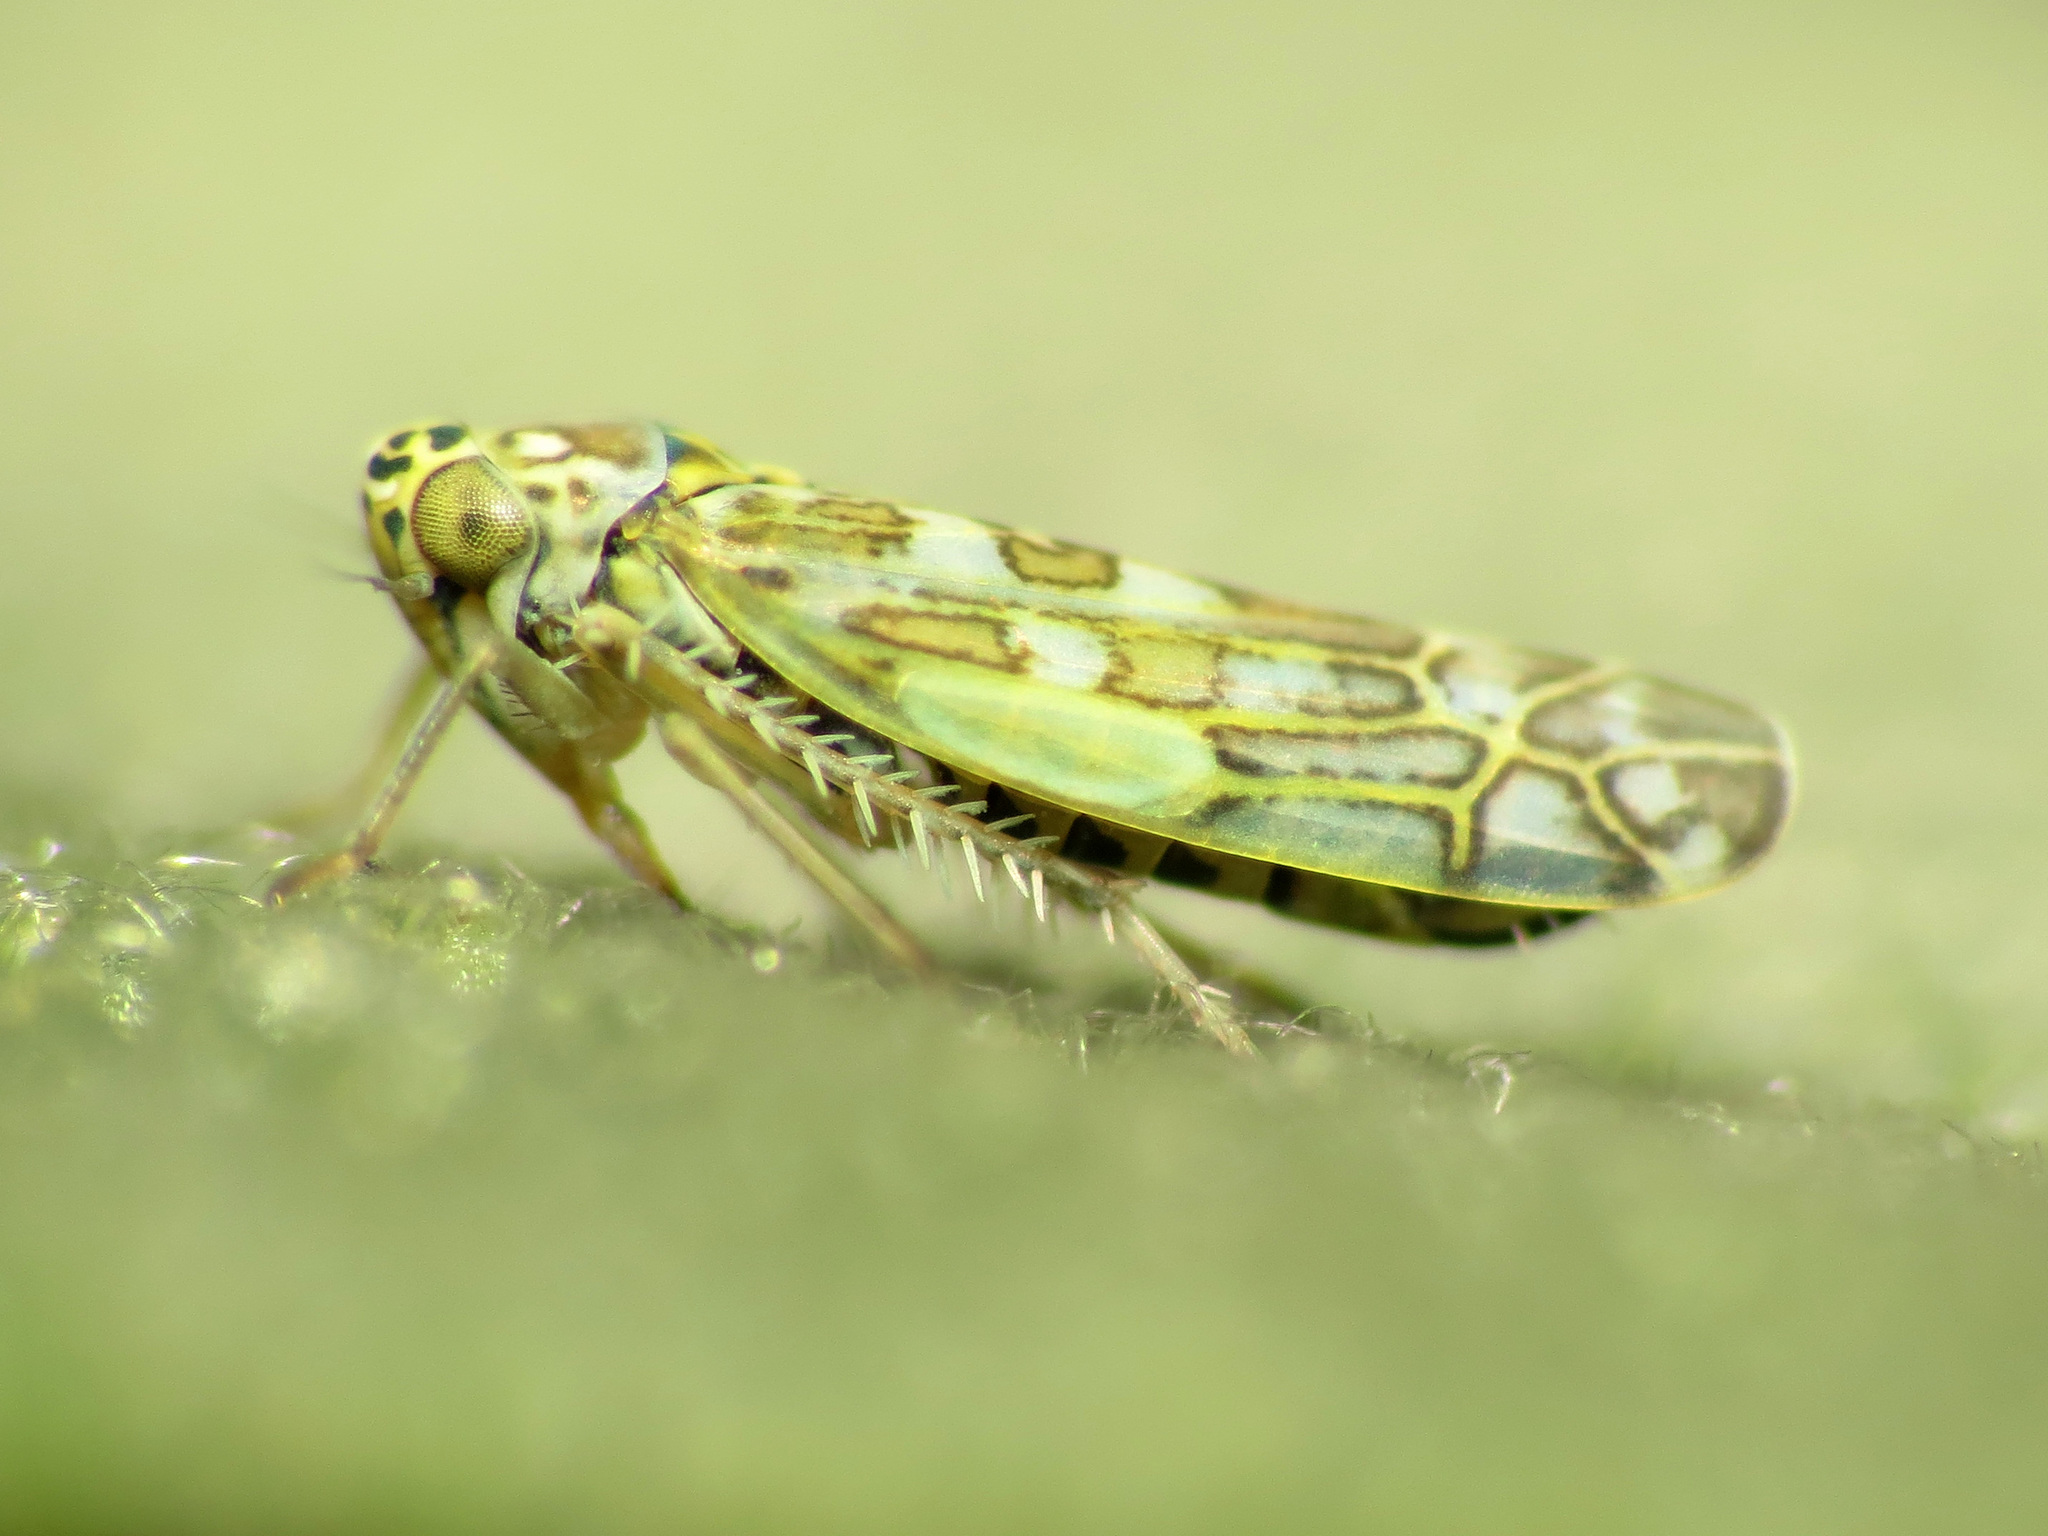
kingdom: Animalia
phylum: Arthropoda
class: Insecta
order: Hemiptera
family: Cicadellidae
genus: Eupteryx
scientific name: Eupteryx decemnotata
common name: Ligurian leafhopper
